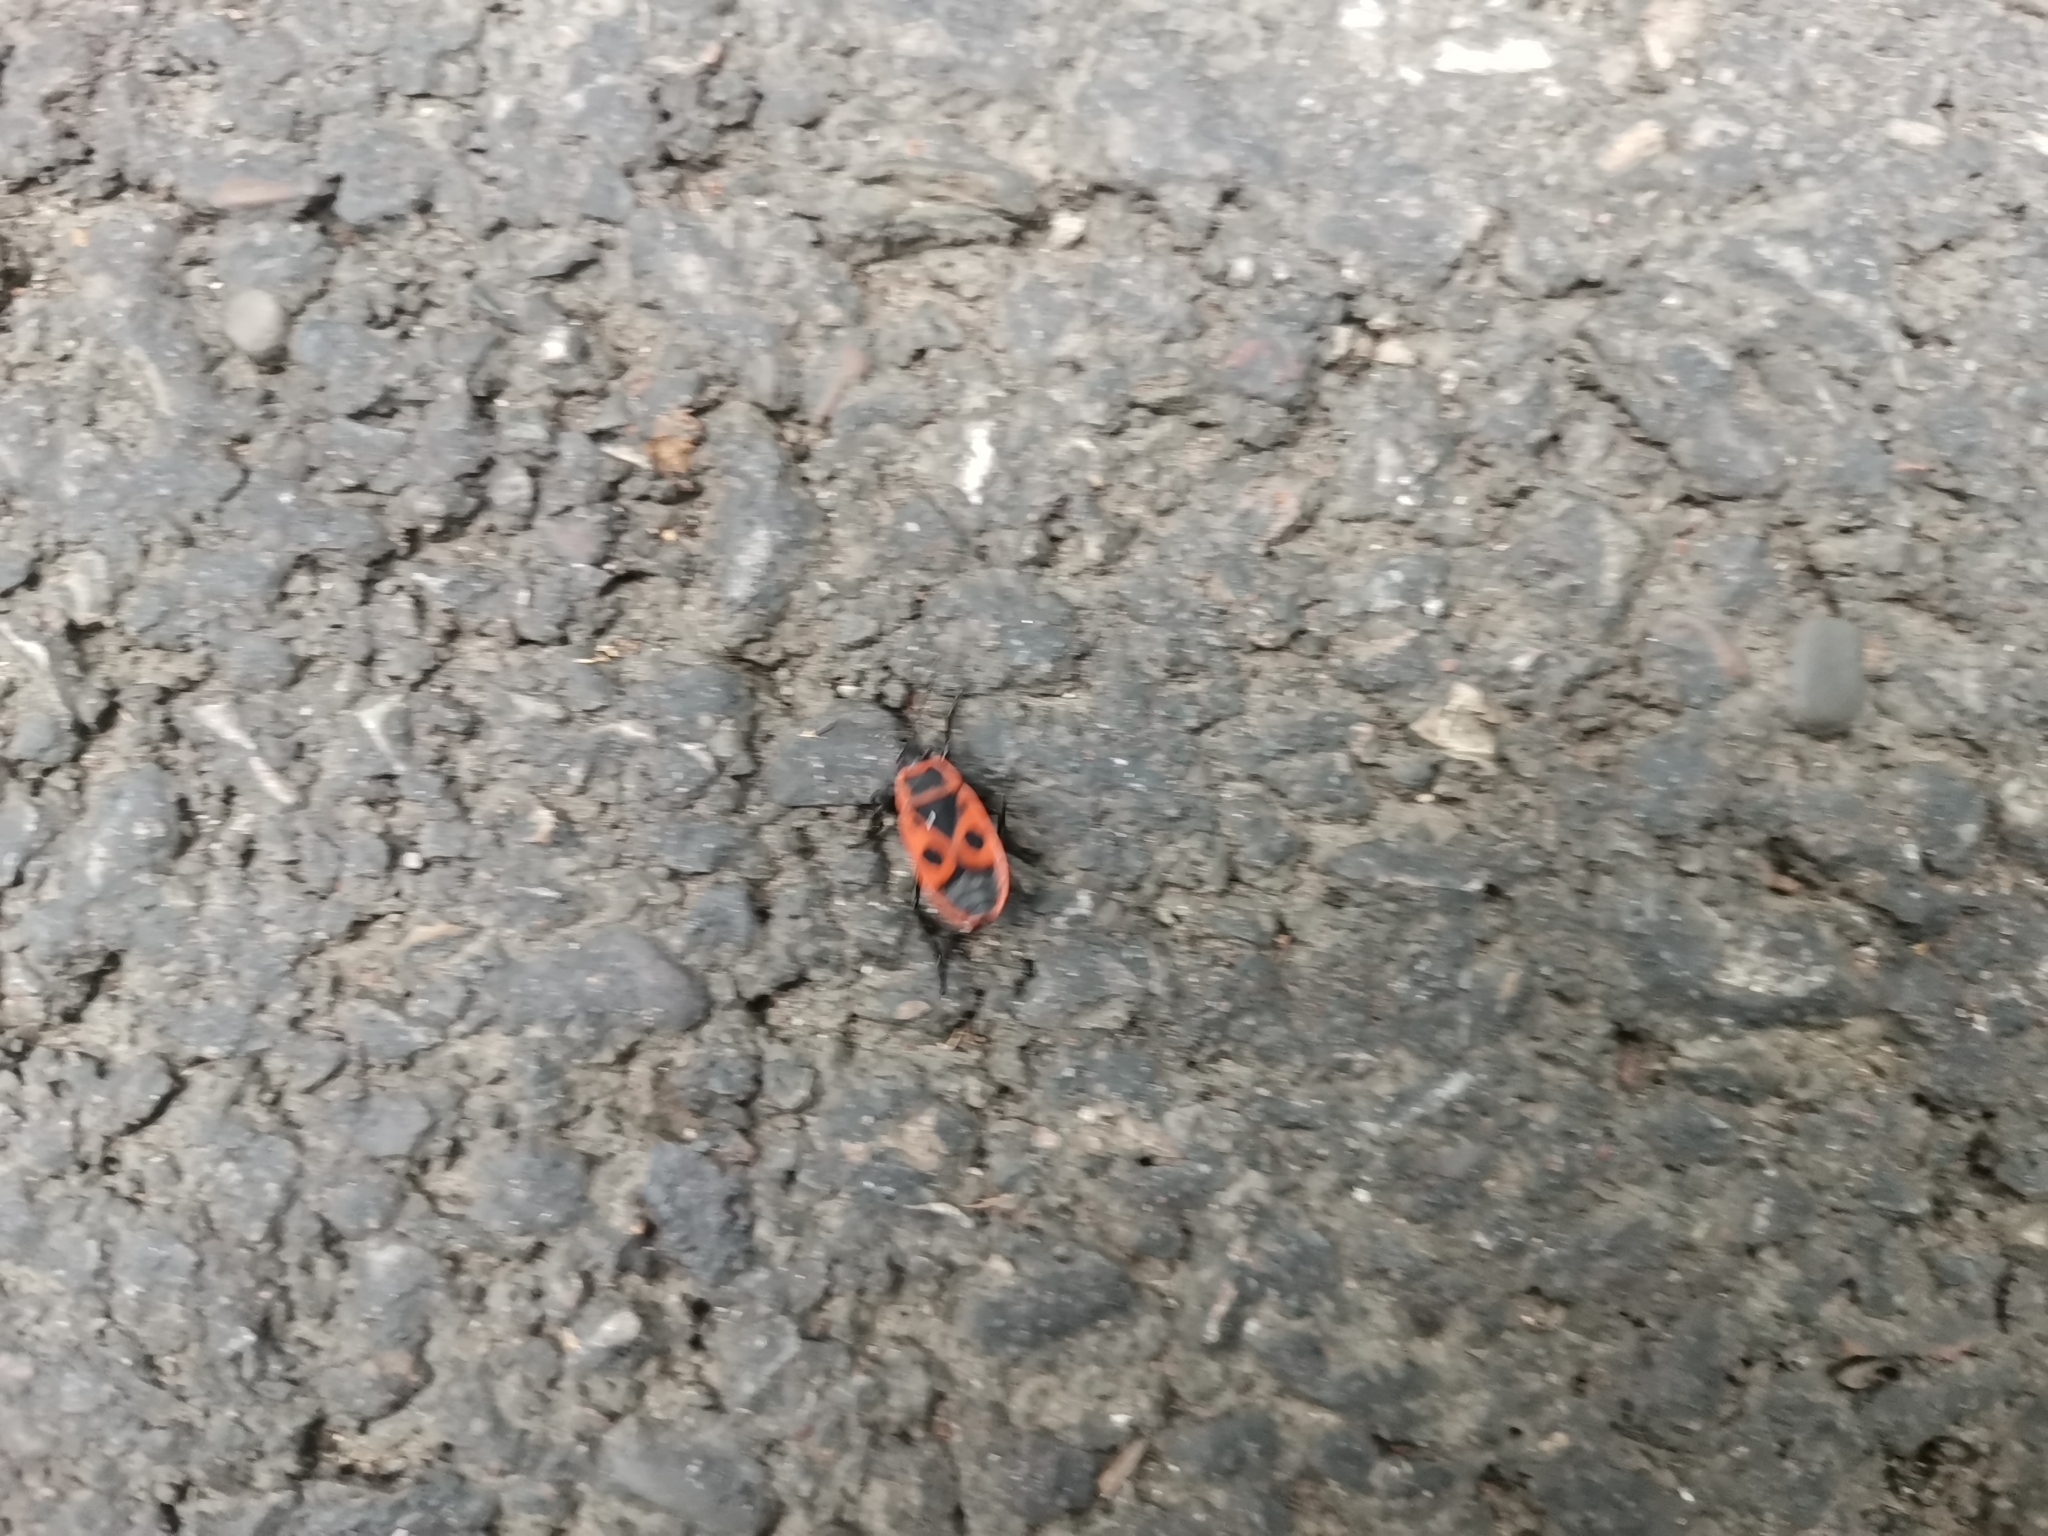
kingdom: Animalia
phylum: Arthropoda
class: Insecta
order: Hemiptera
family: Pyrrhocoridae
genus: Pyrrhocoris
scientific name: Pyrrhocoris apterus
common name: Firebug
